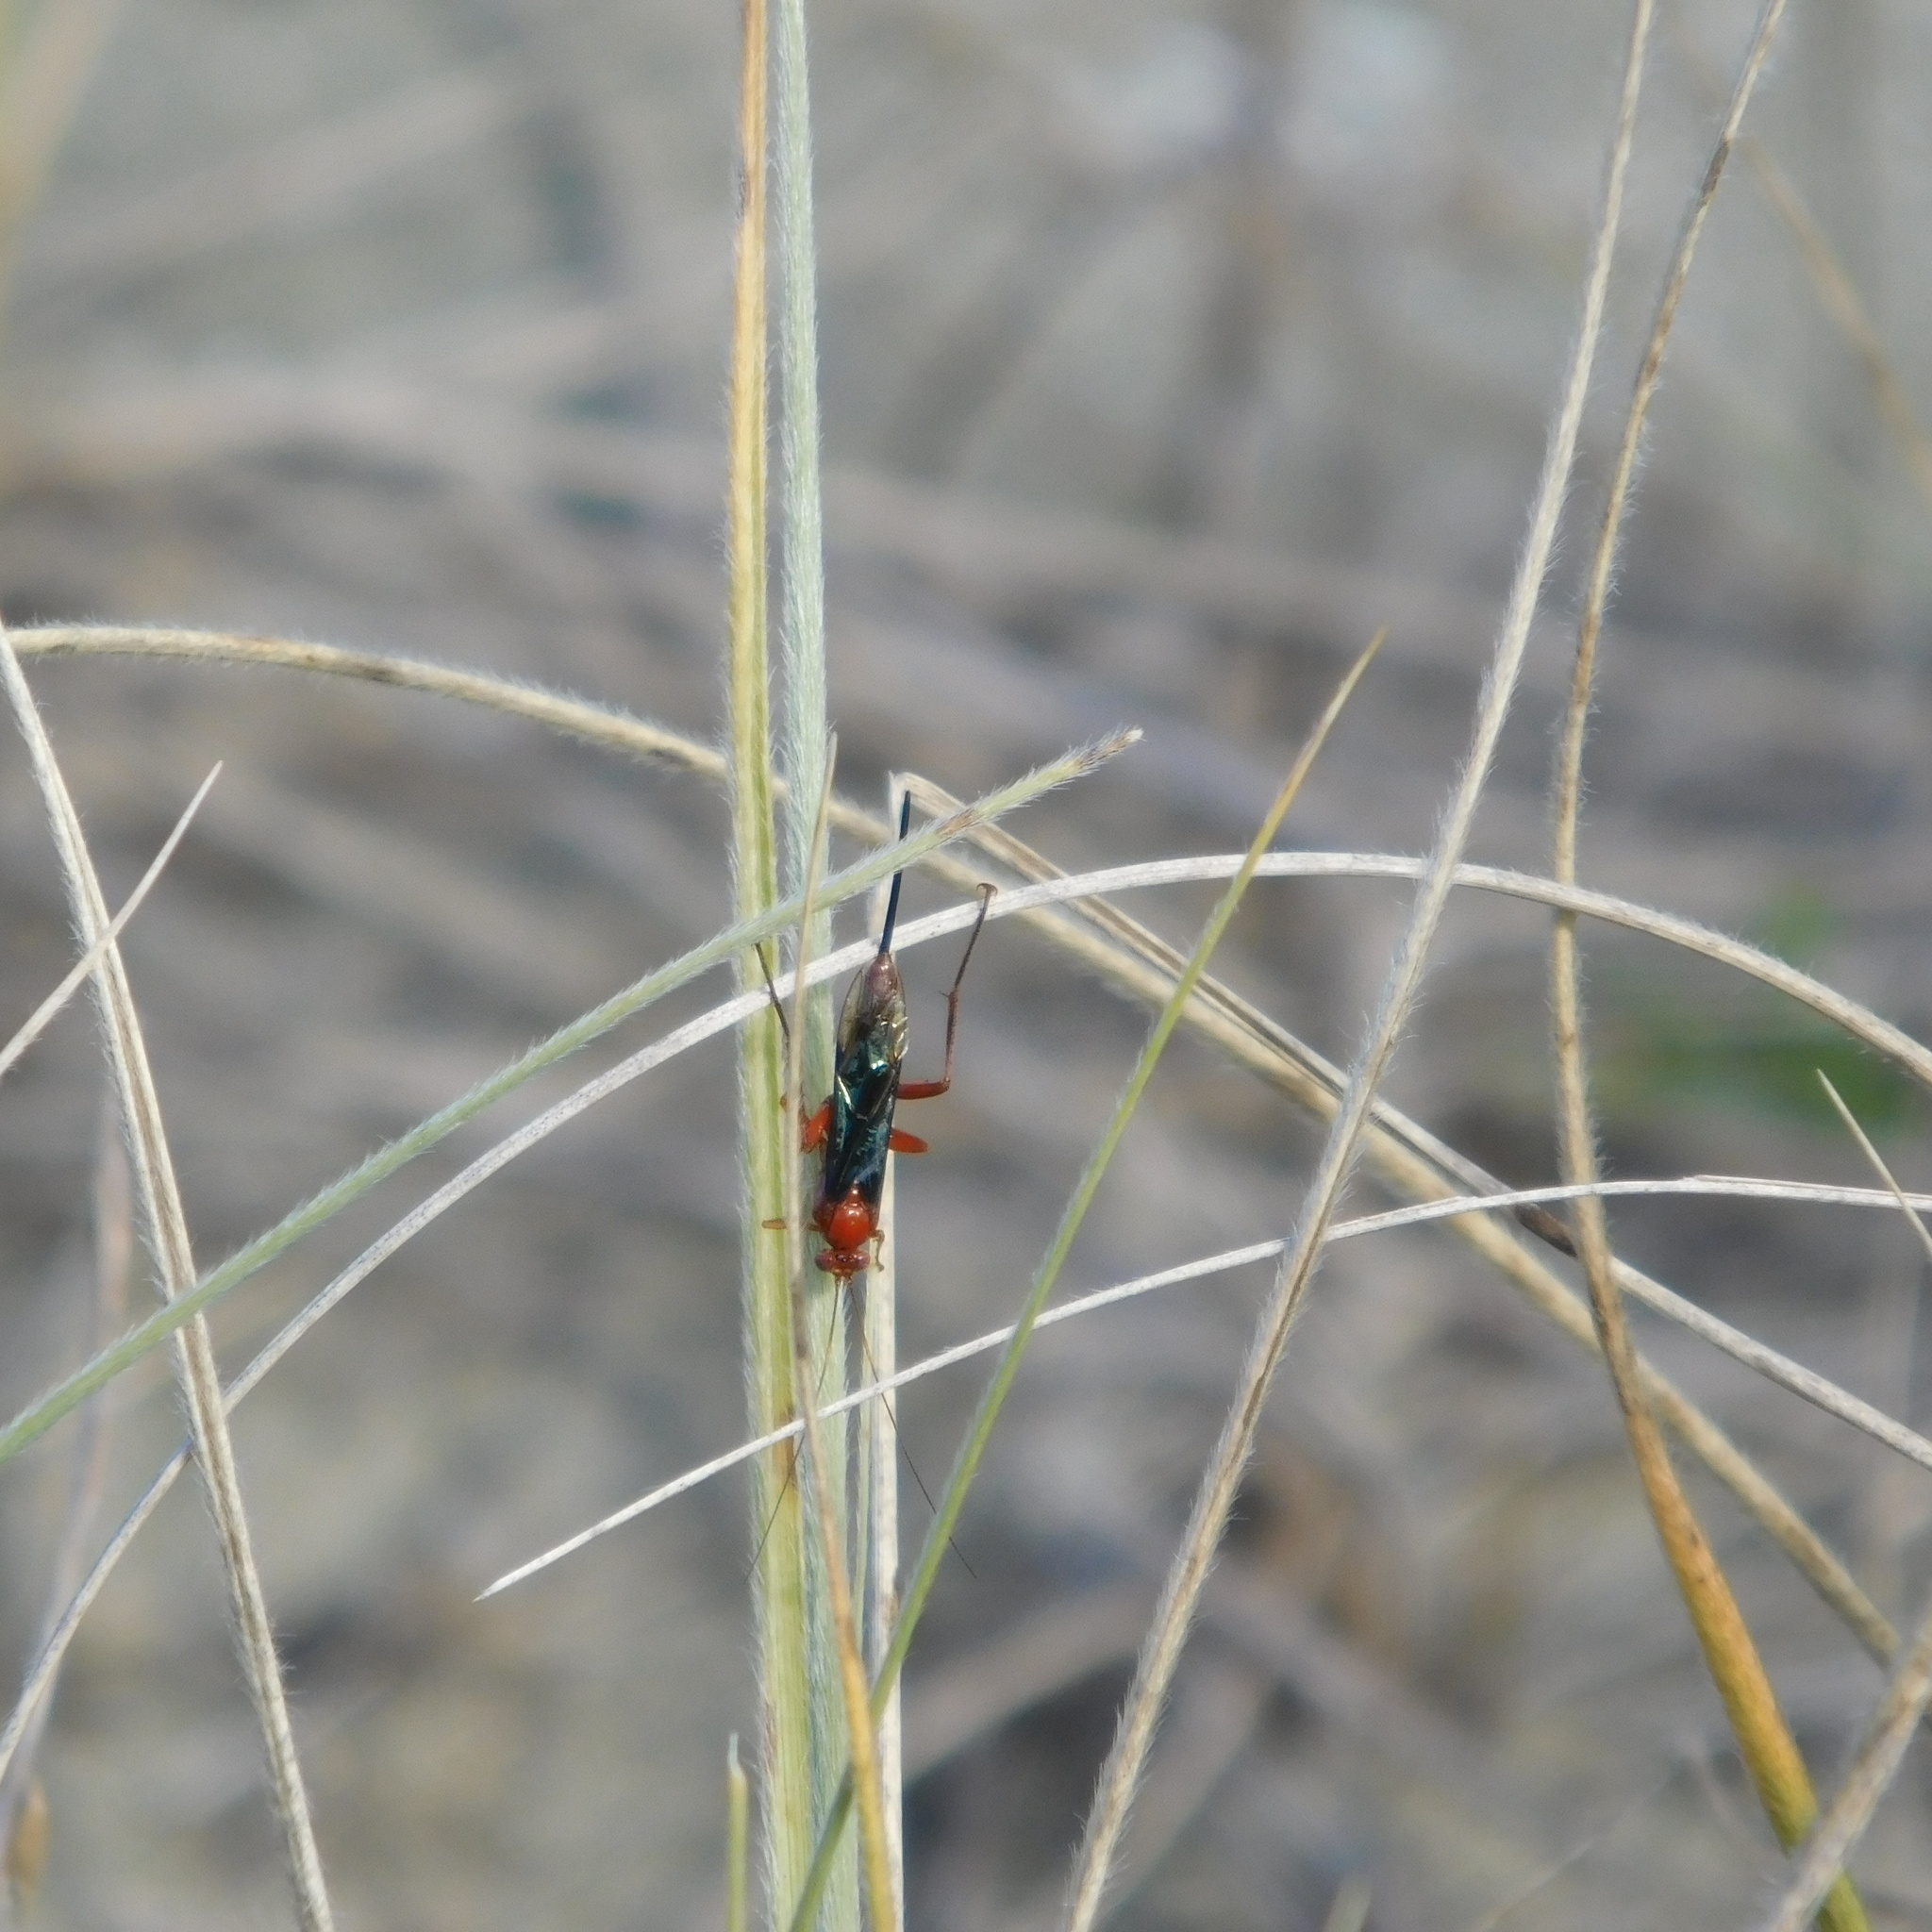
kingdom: Animalia
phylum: Arthropoda
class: Insecta
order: Hymenoptera
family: Ichneumonidae
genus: Lissopimpla
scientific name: Lissopimpla excelsa
